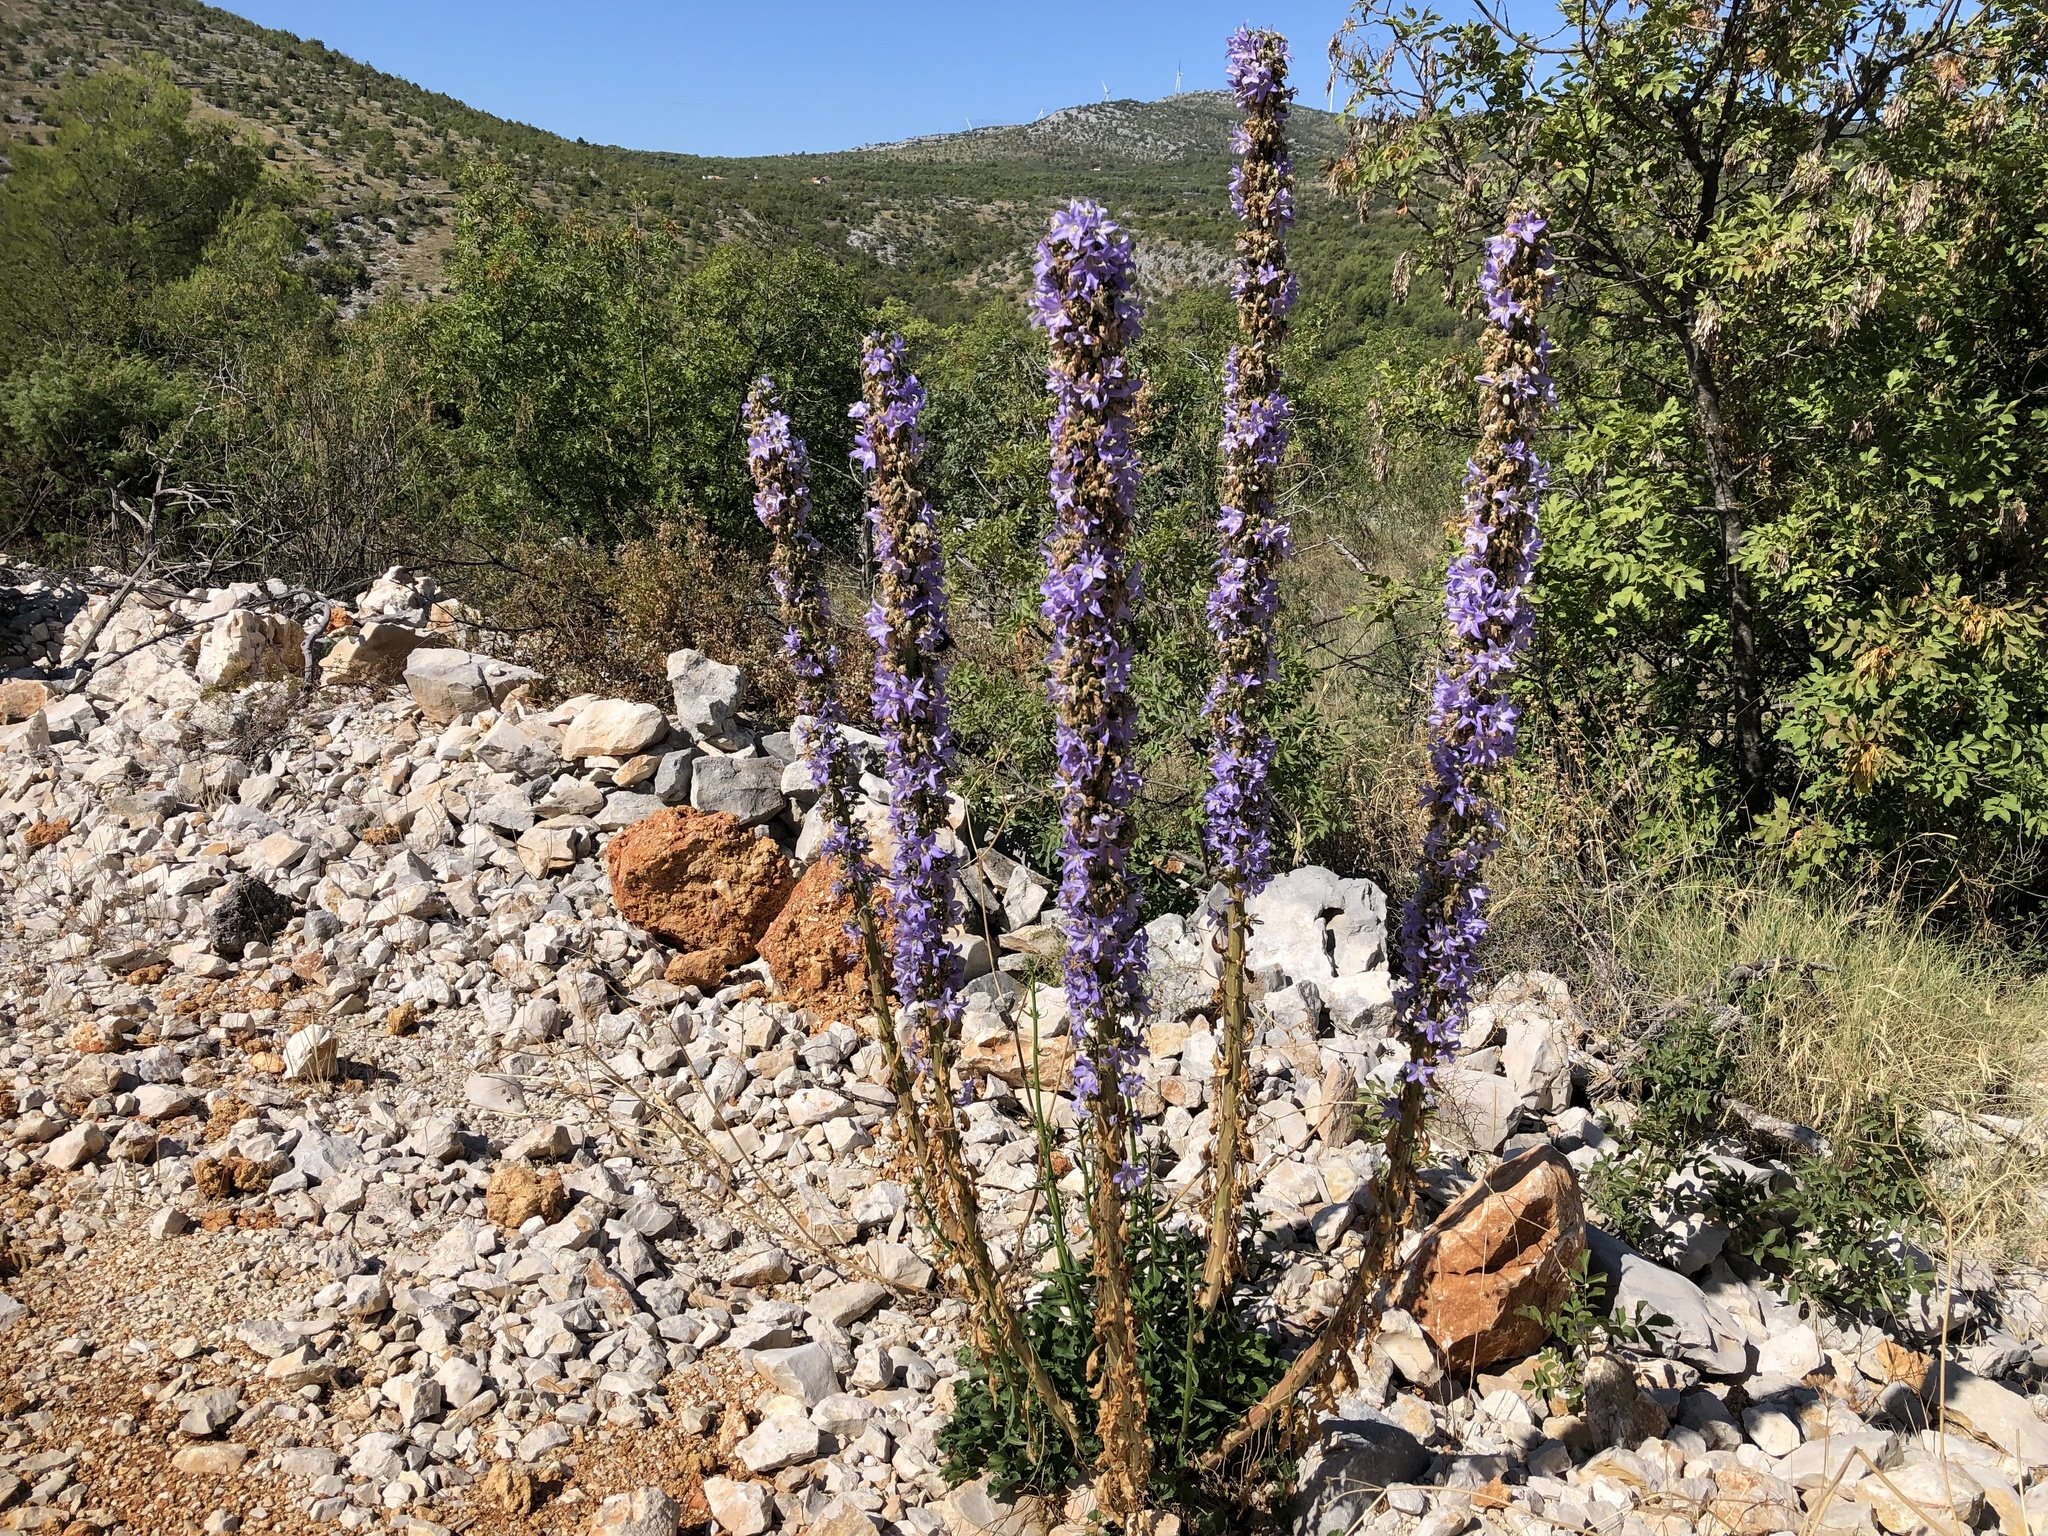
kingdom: Plantae
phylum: Tracheophyta
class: Magnoliopsida
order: Asterales
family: Campanulaceae
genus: Campanula
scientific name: Campanula pyramidalis
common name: Chimney bellflower
